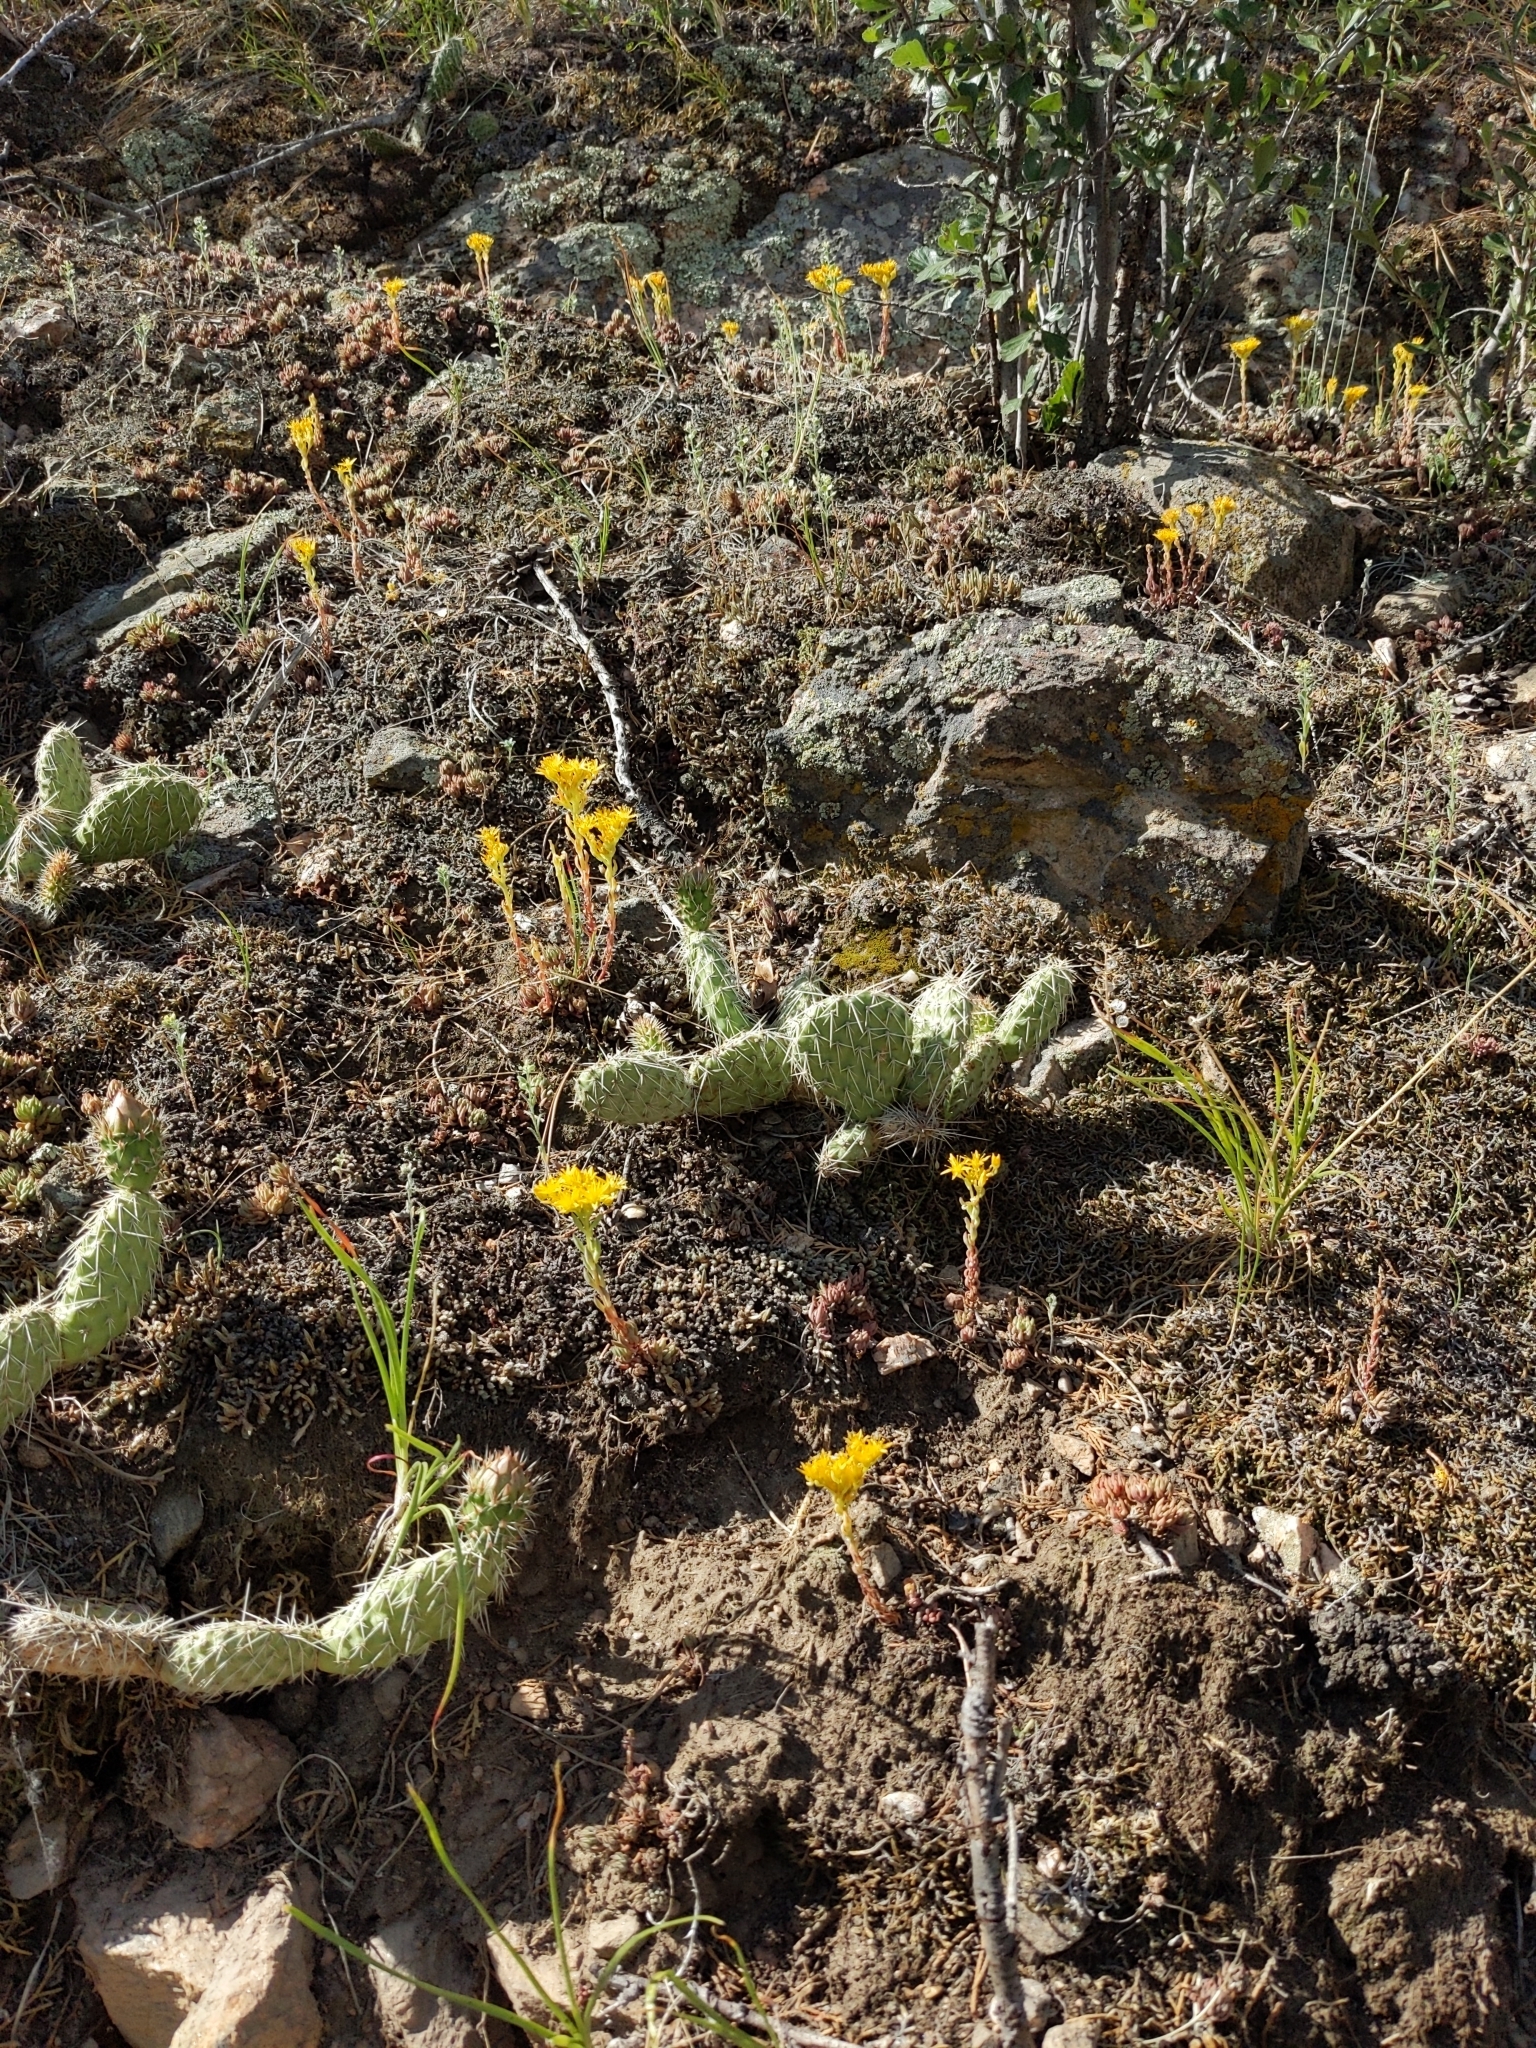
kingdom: Plantae
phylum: Tracheophyta
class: Magnoliopsida
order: Saxifragales
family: Crassulaceae
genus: Sedum
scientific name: Sedum lanceolatum
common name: Common stonecrop
